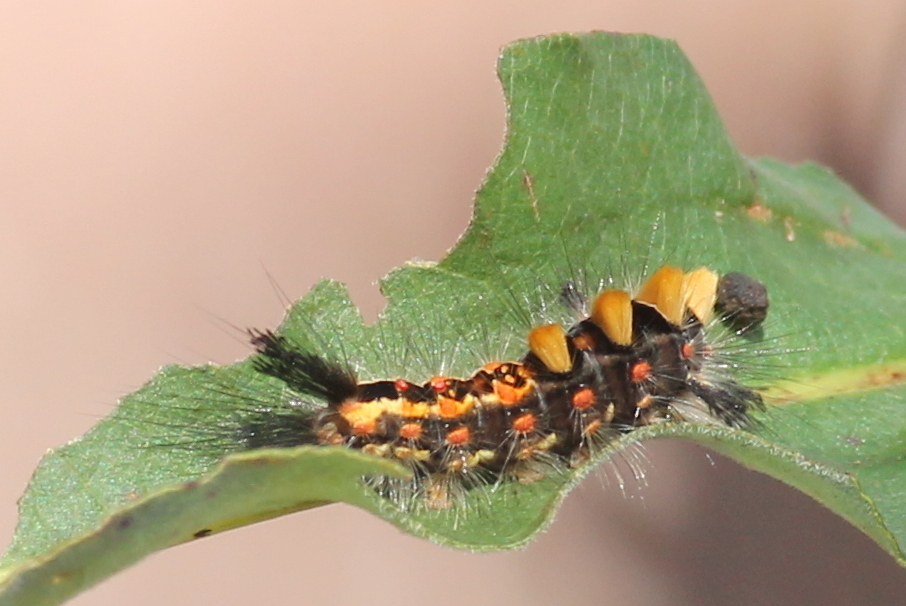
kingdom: Animalia
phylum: Arthropoda
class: Insecta
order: Lepidoptera
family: Erebidae
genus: Orgyia
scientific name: Orgyia antiqua
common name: Vapourer
